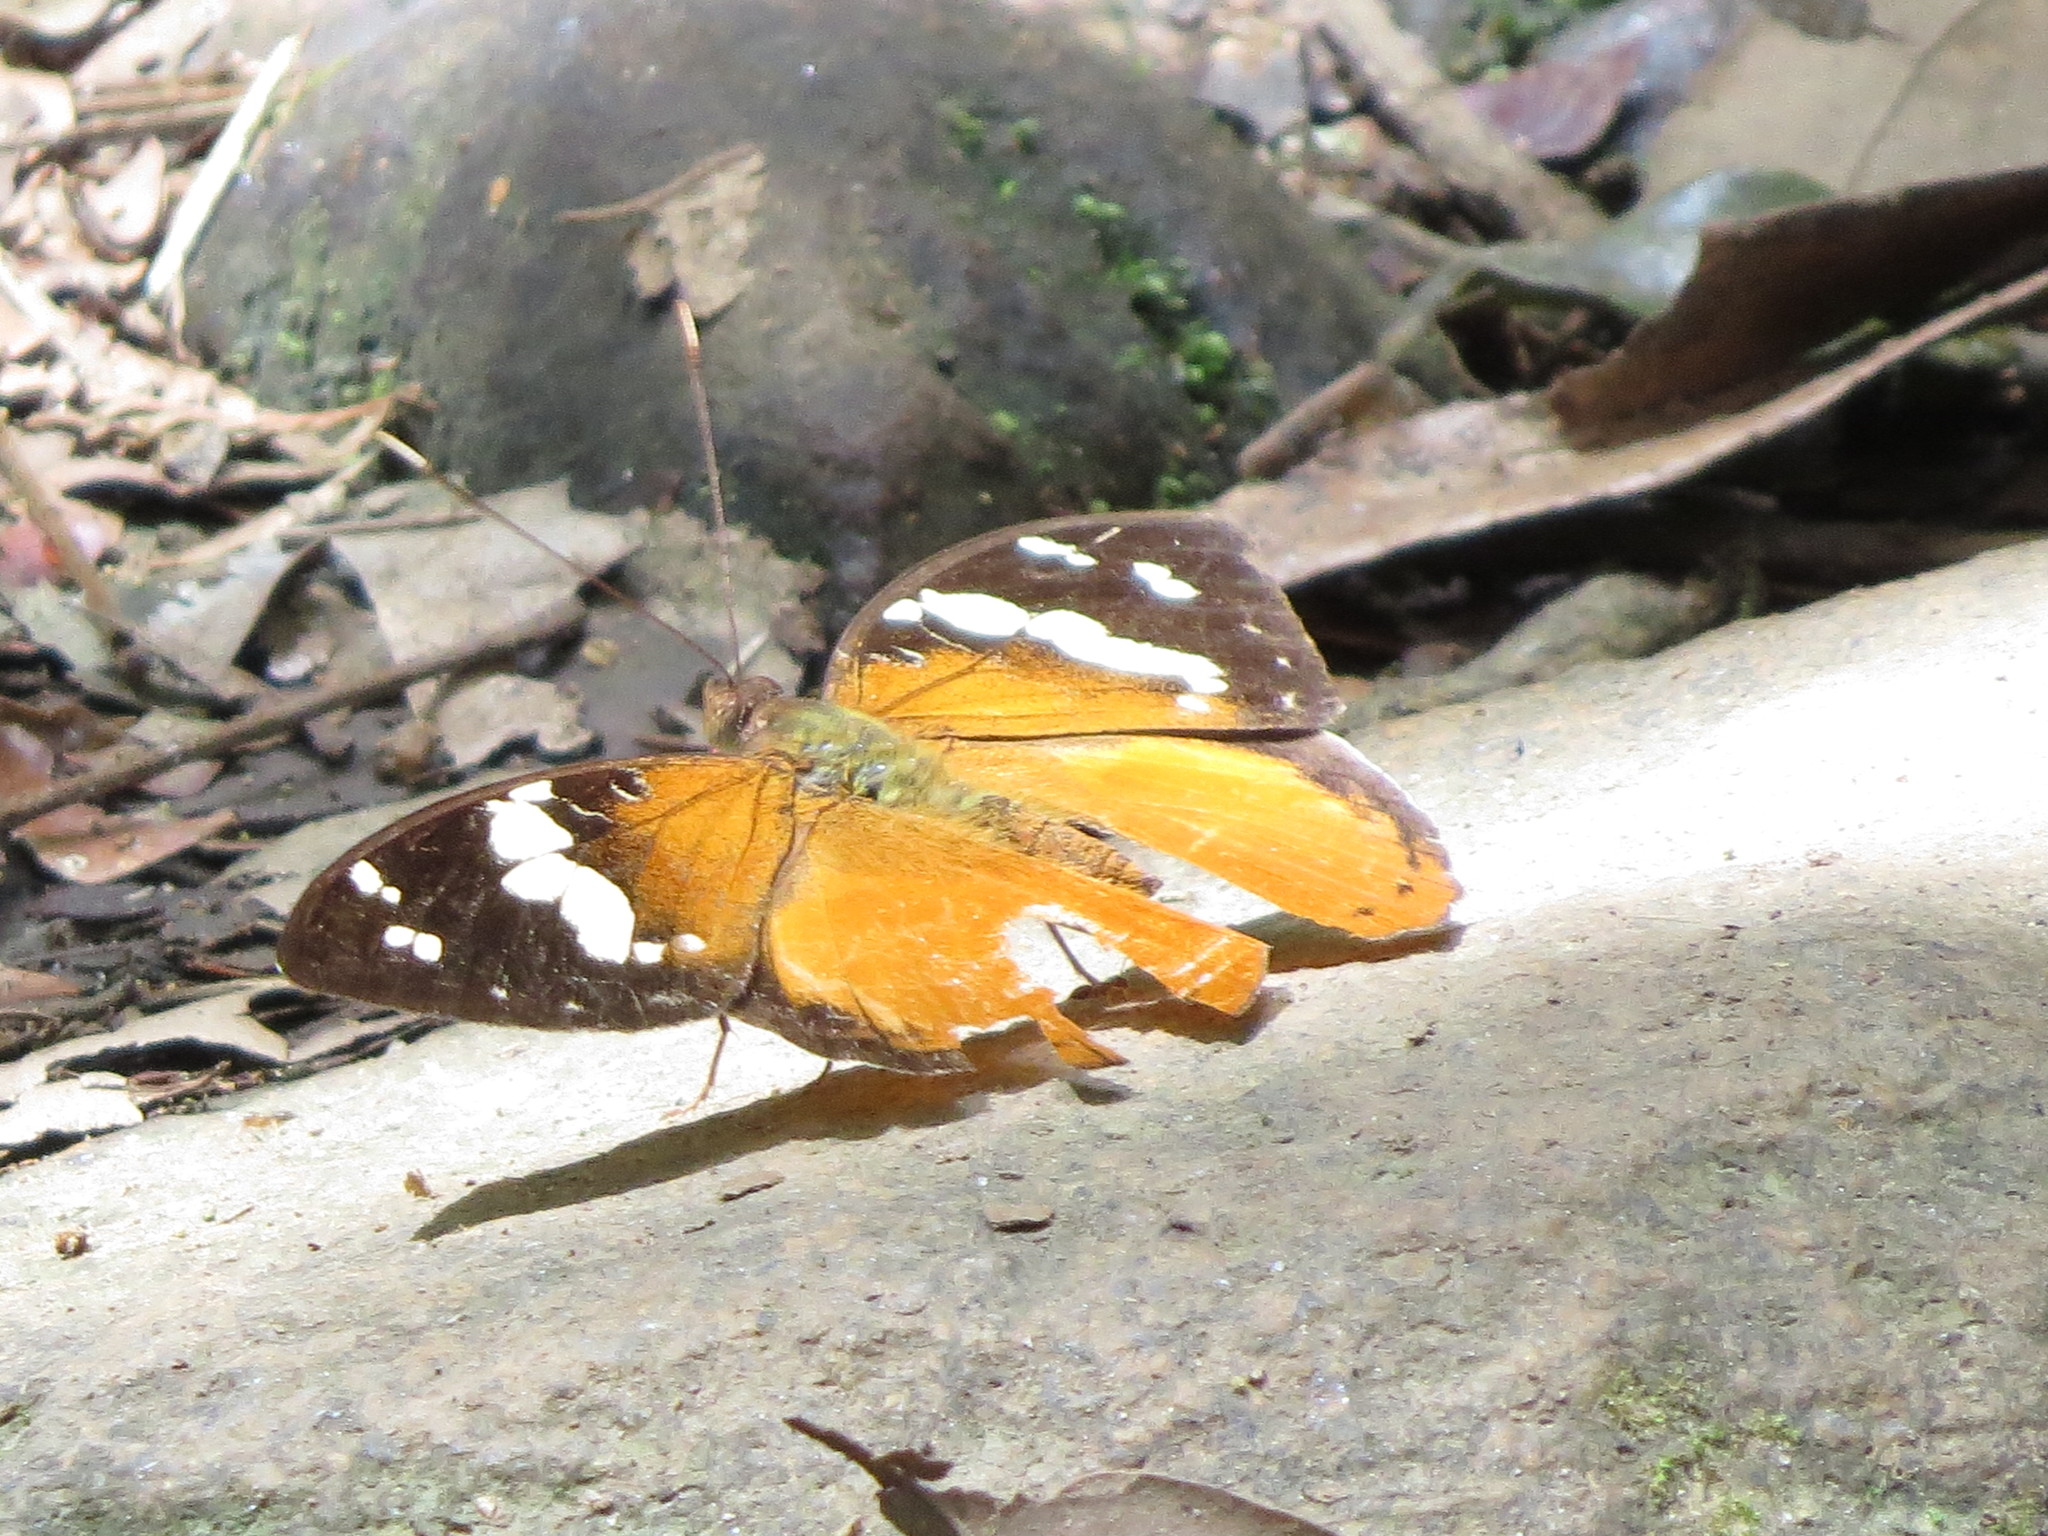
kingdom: Animalia
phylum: Arthropoda
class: Insecta
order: Lepidoptera
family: Nymphalidae
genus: Aterica
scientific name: Aterica rabena
